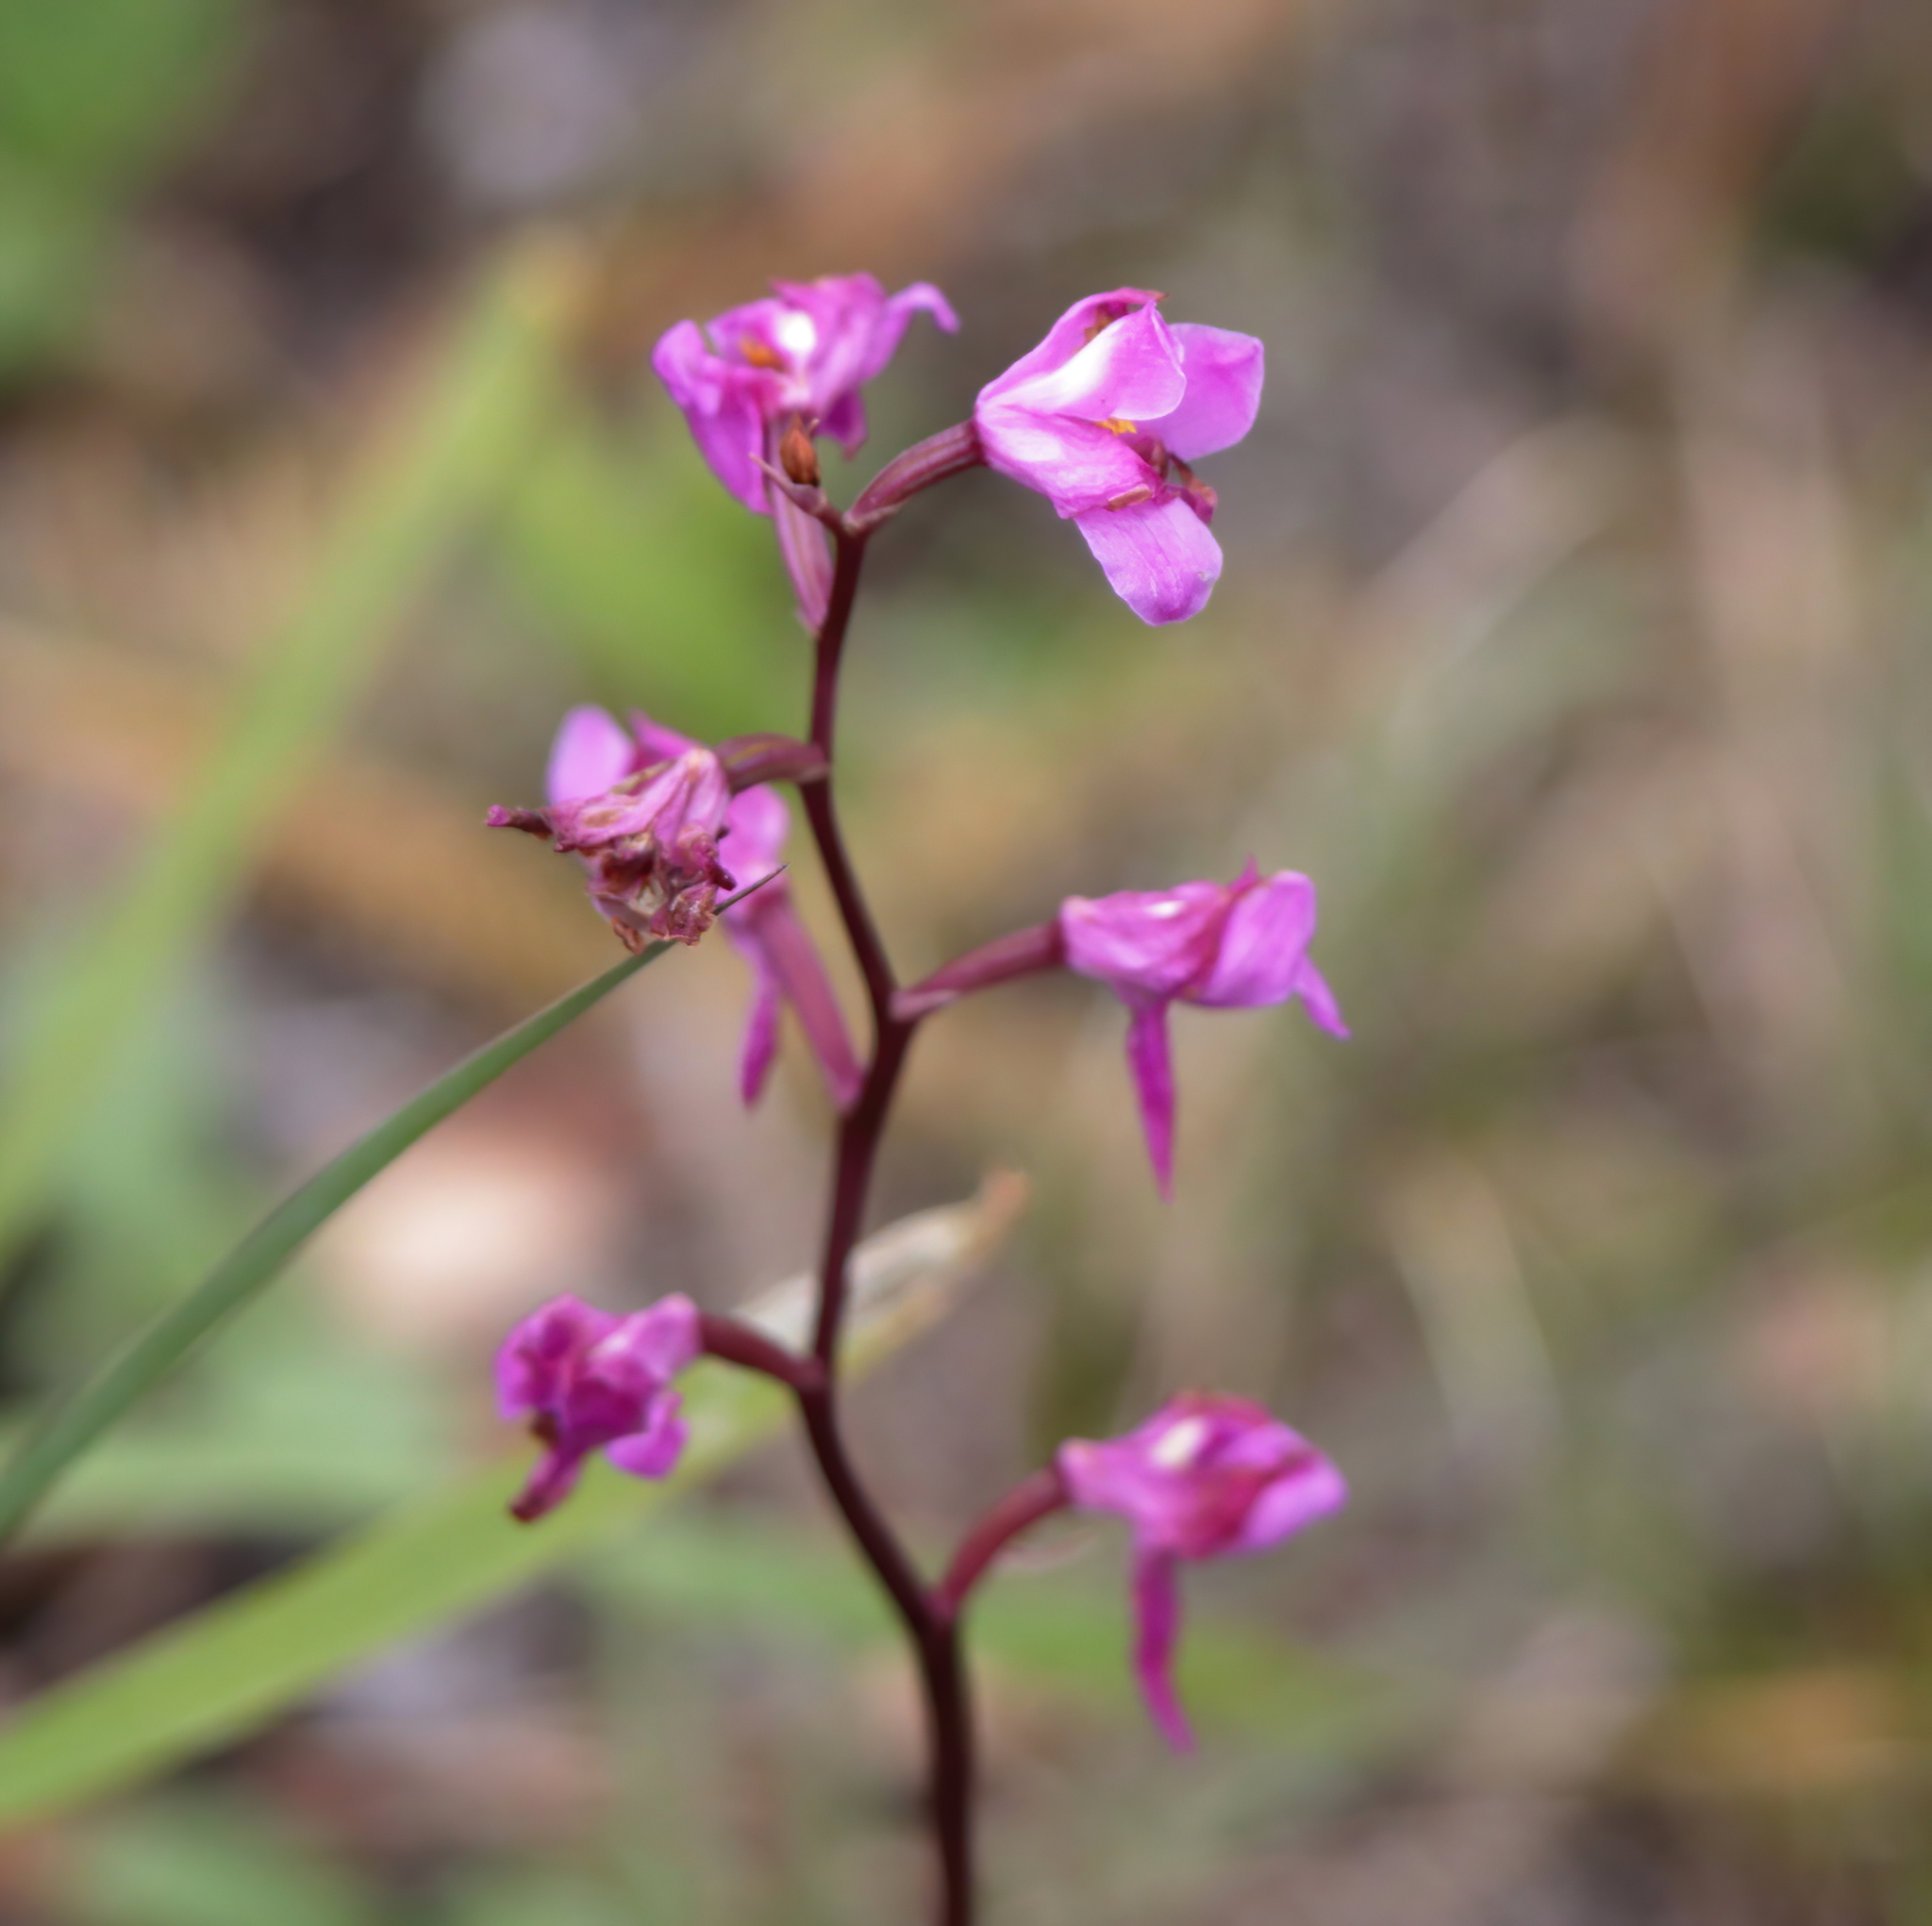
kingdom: Plantae
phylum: Tracheophyta
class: Liliopsida
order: Asparagales
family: Orchidaceae
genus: Calopogon
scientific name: Calopogon multiflorus
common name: Many-flowered grass-pink orchid
